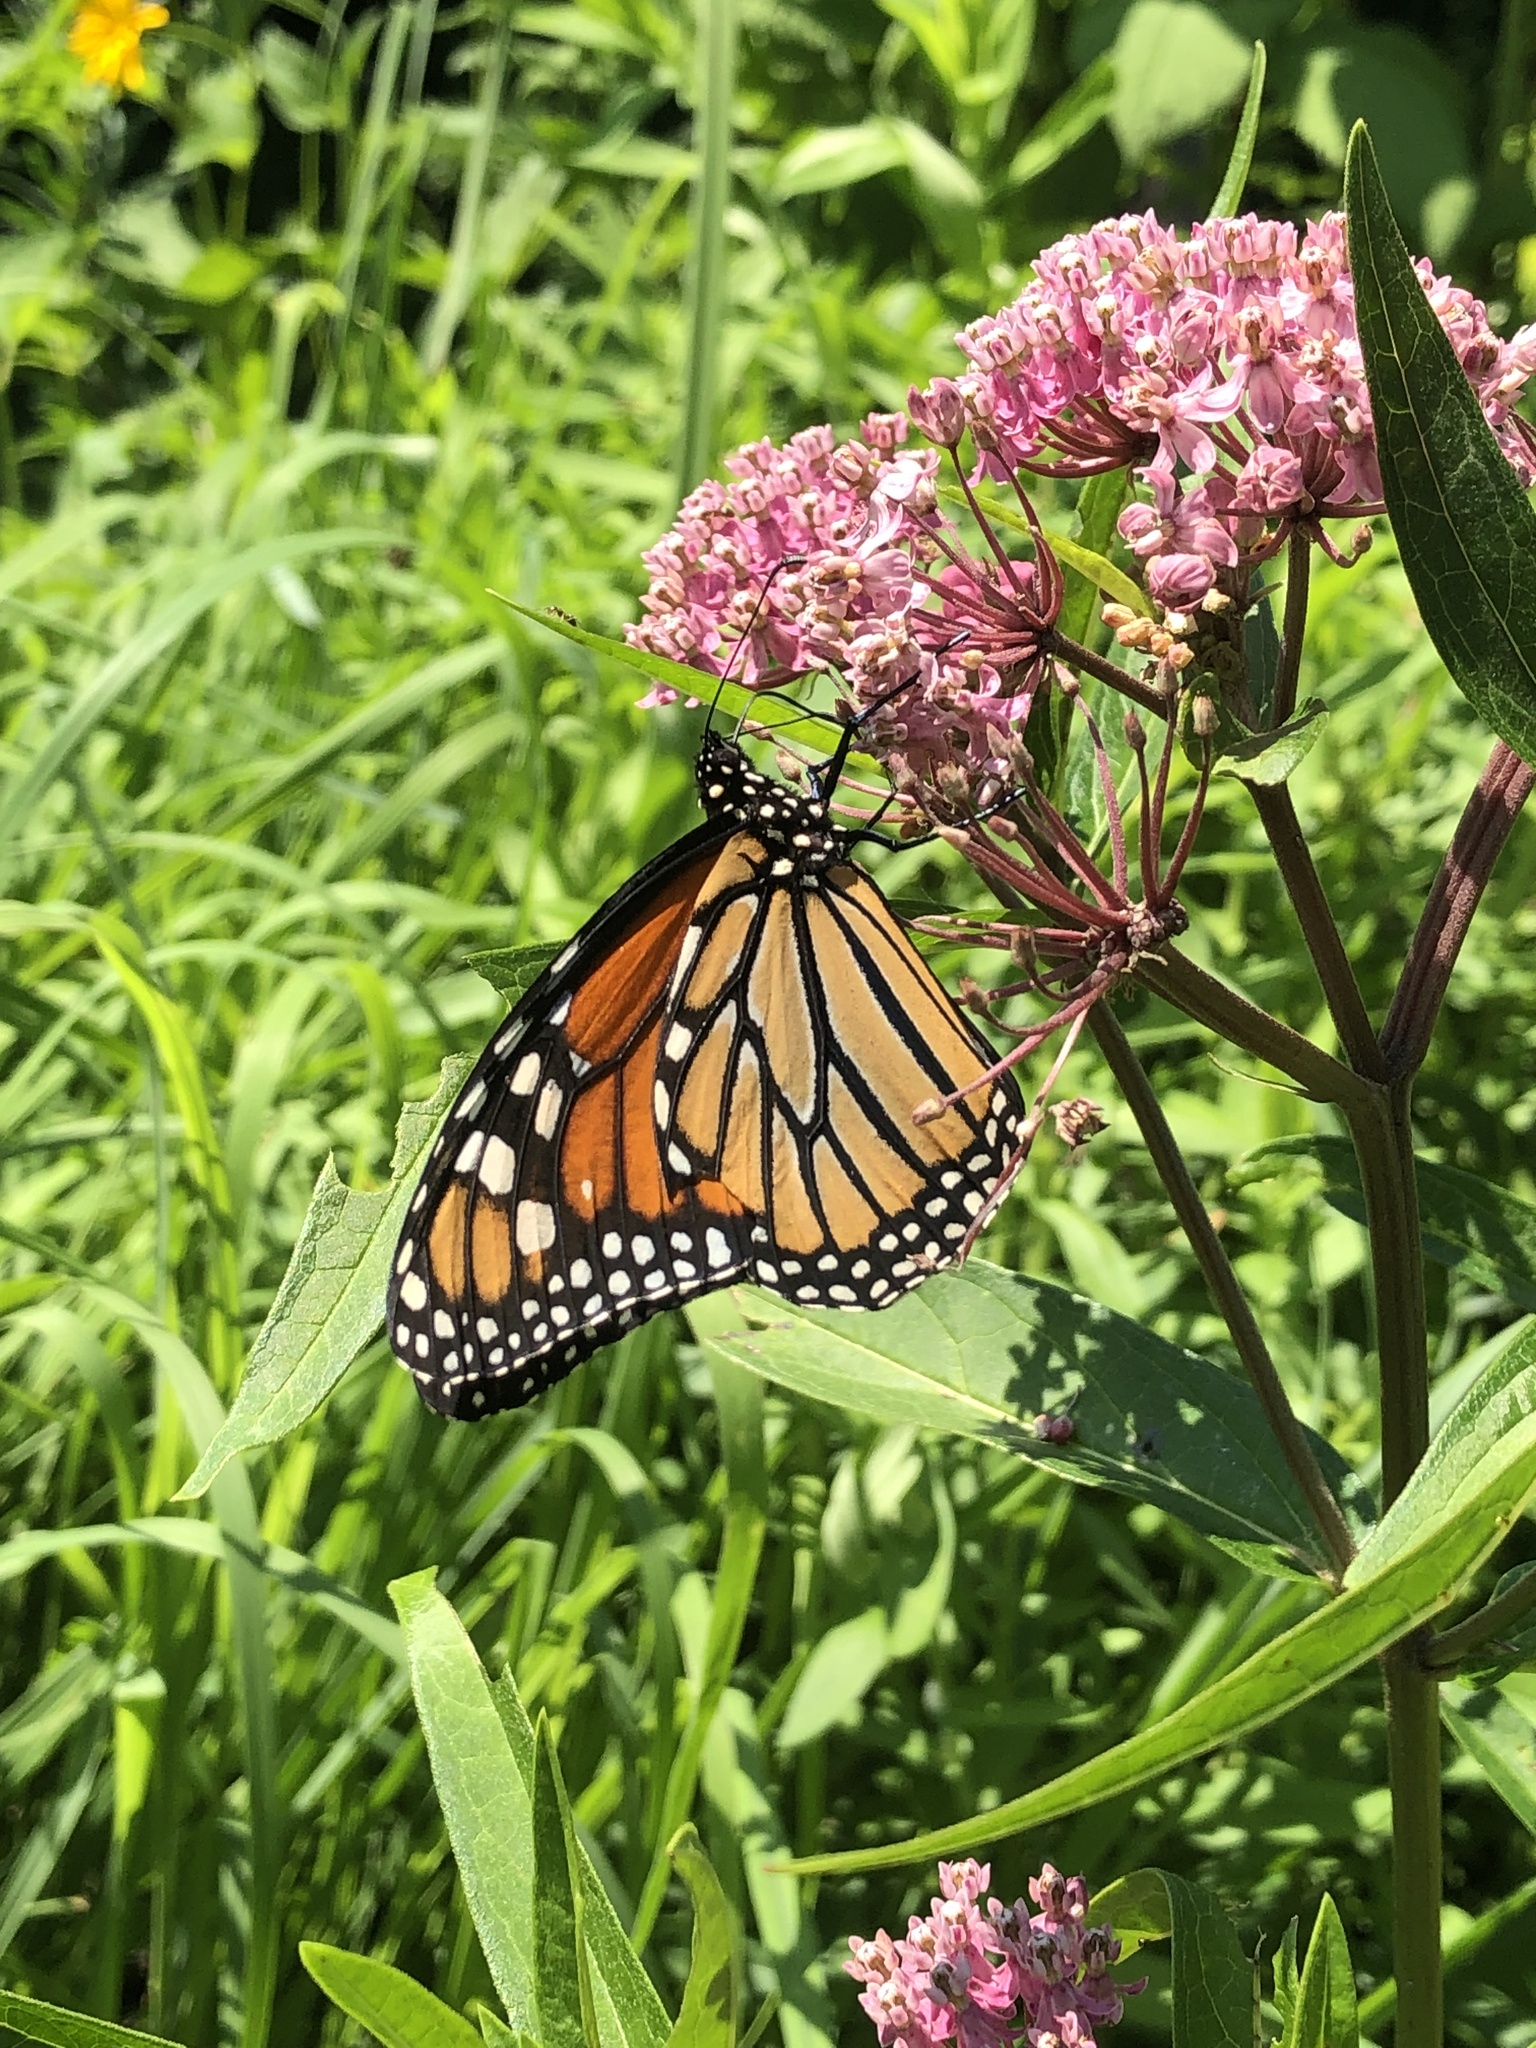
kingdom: Animalia
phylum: Arthropoda
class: Insecta
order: Lepidoptera
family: Nymphalidae
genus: Danaus
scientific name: Danaus plexippus
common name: Monarch
